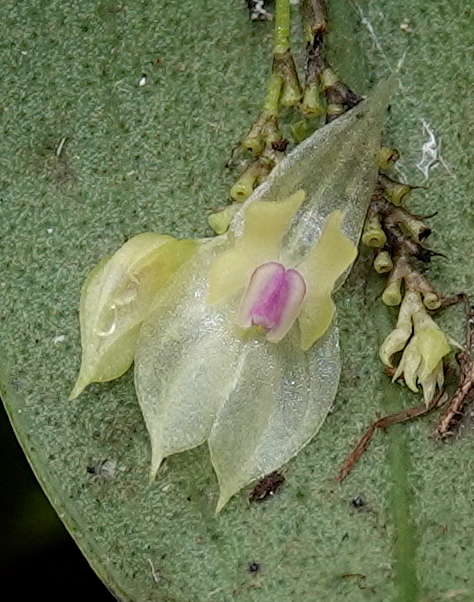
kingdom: Plantae
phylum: Tracheophyta
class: Liliopsida
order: Asparagales
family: Orchidaceae
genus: Lepanthes
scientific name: Lepanthes dunstervilleorum
